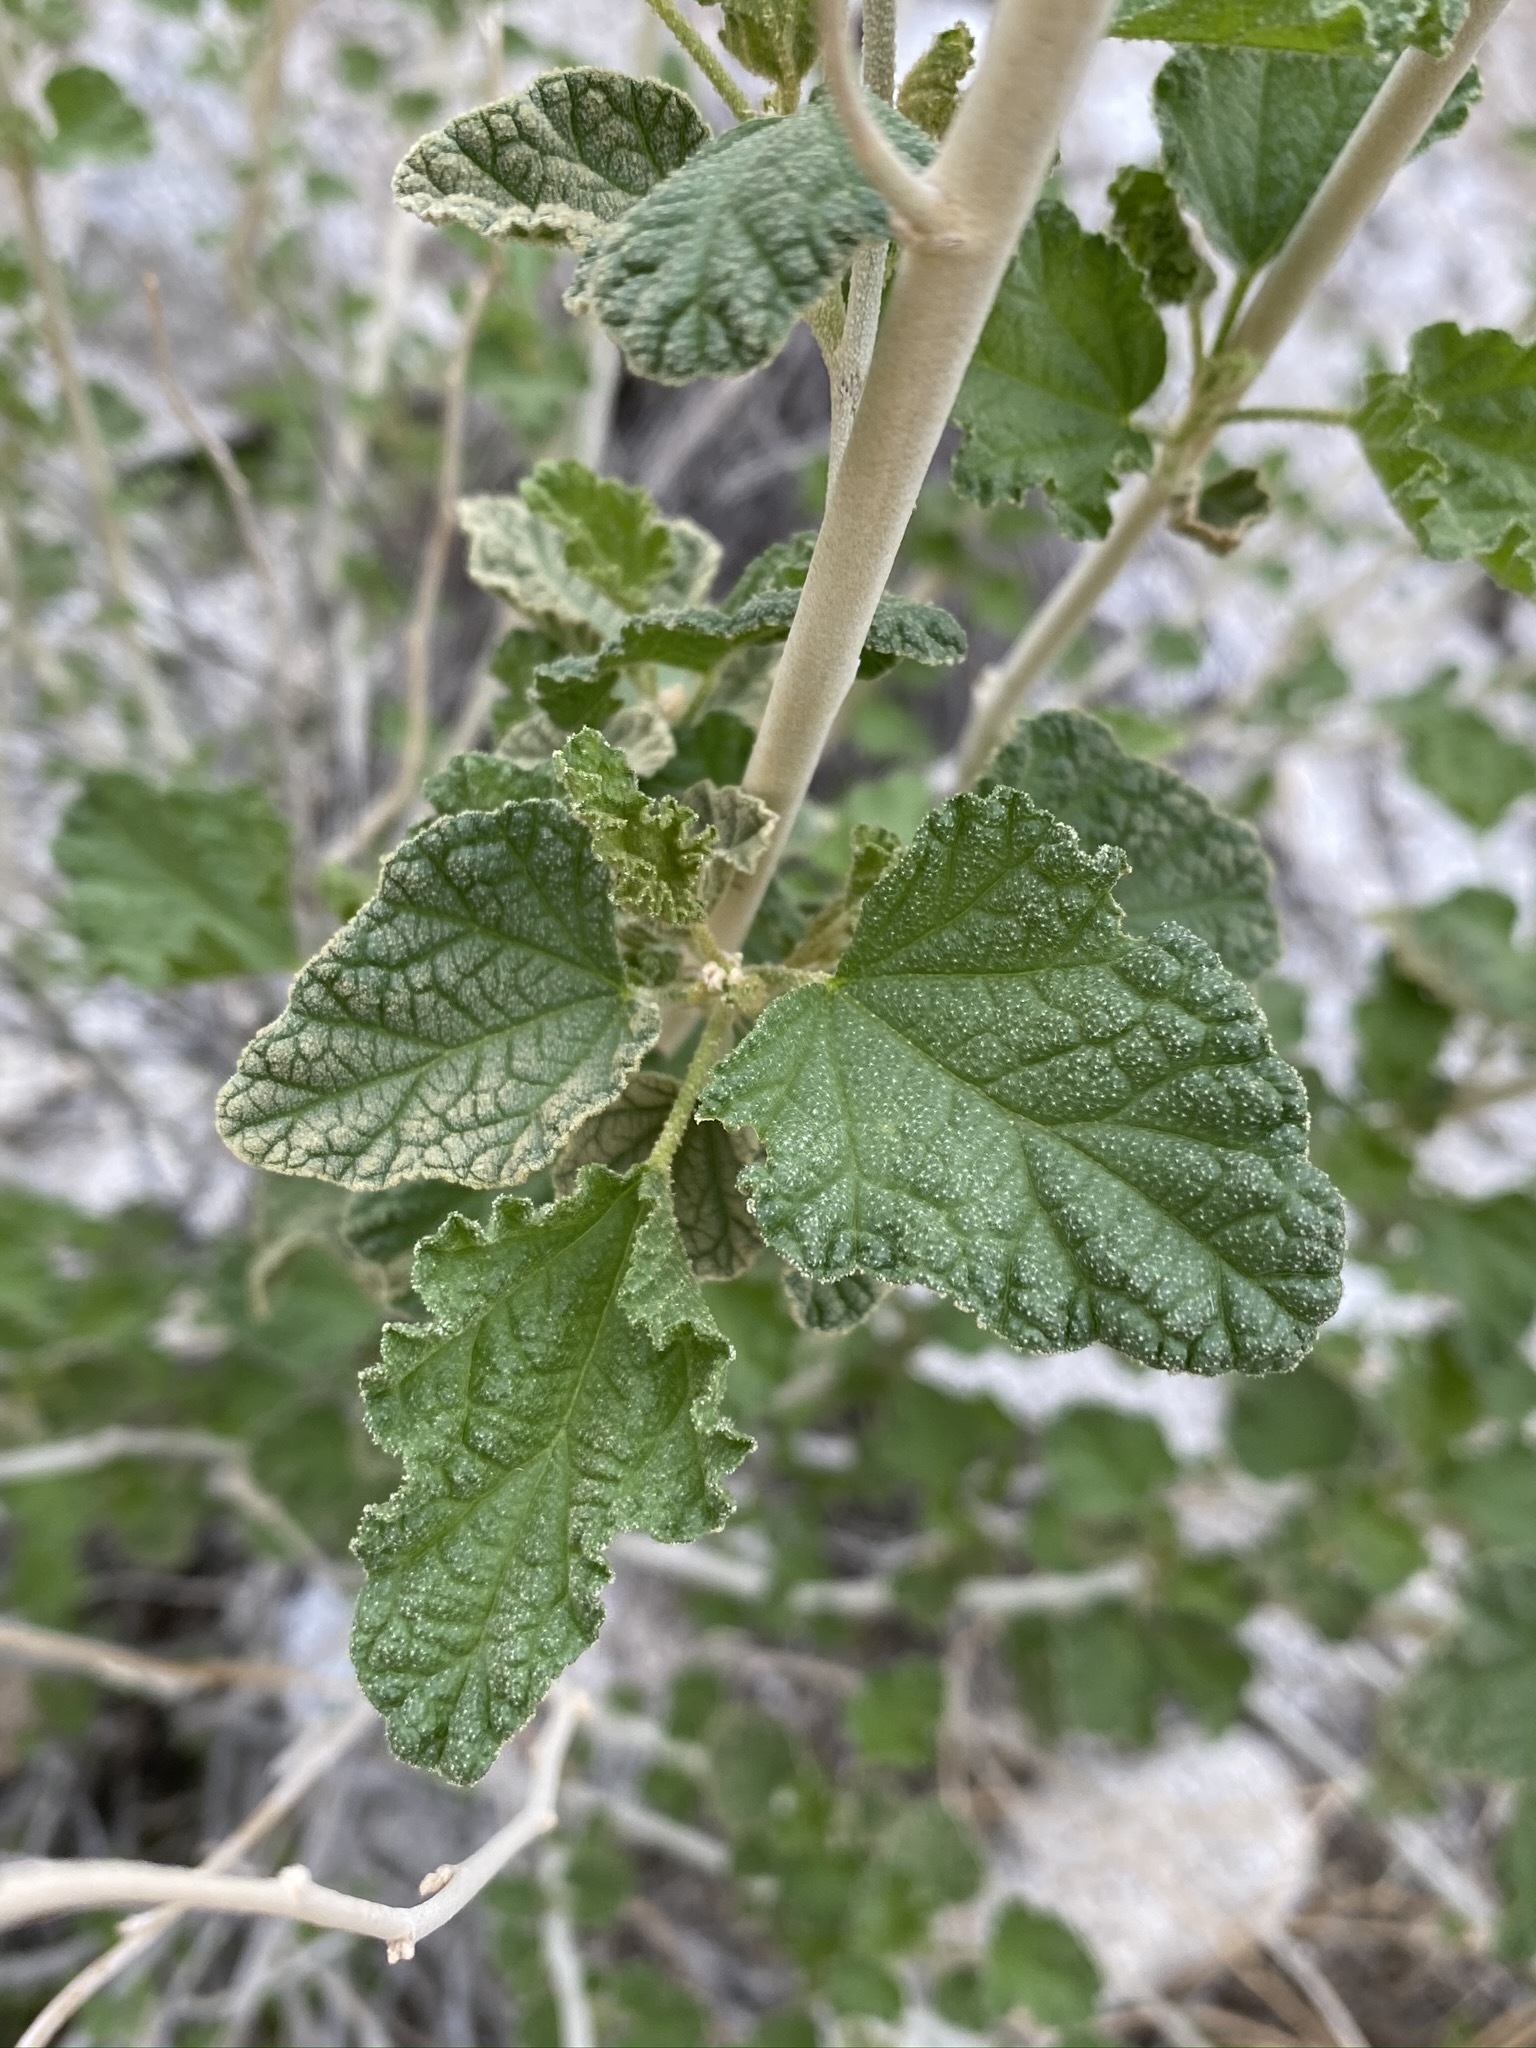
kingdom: Plantae
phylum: Tracheophyta
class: Magnoliopsida
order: Malvales
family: Malvaceae
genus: Sphaeralcea
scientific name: Sphaeralcea ambigua
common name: Apricot globe-mallow
